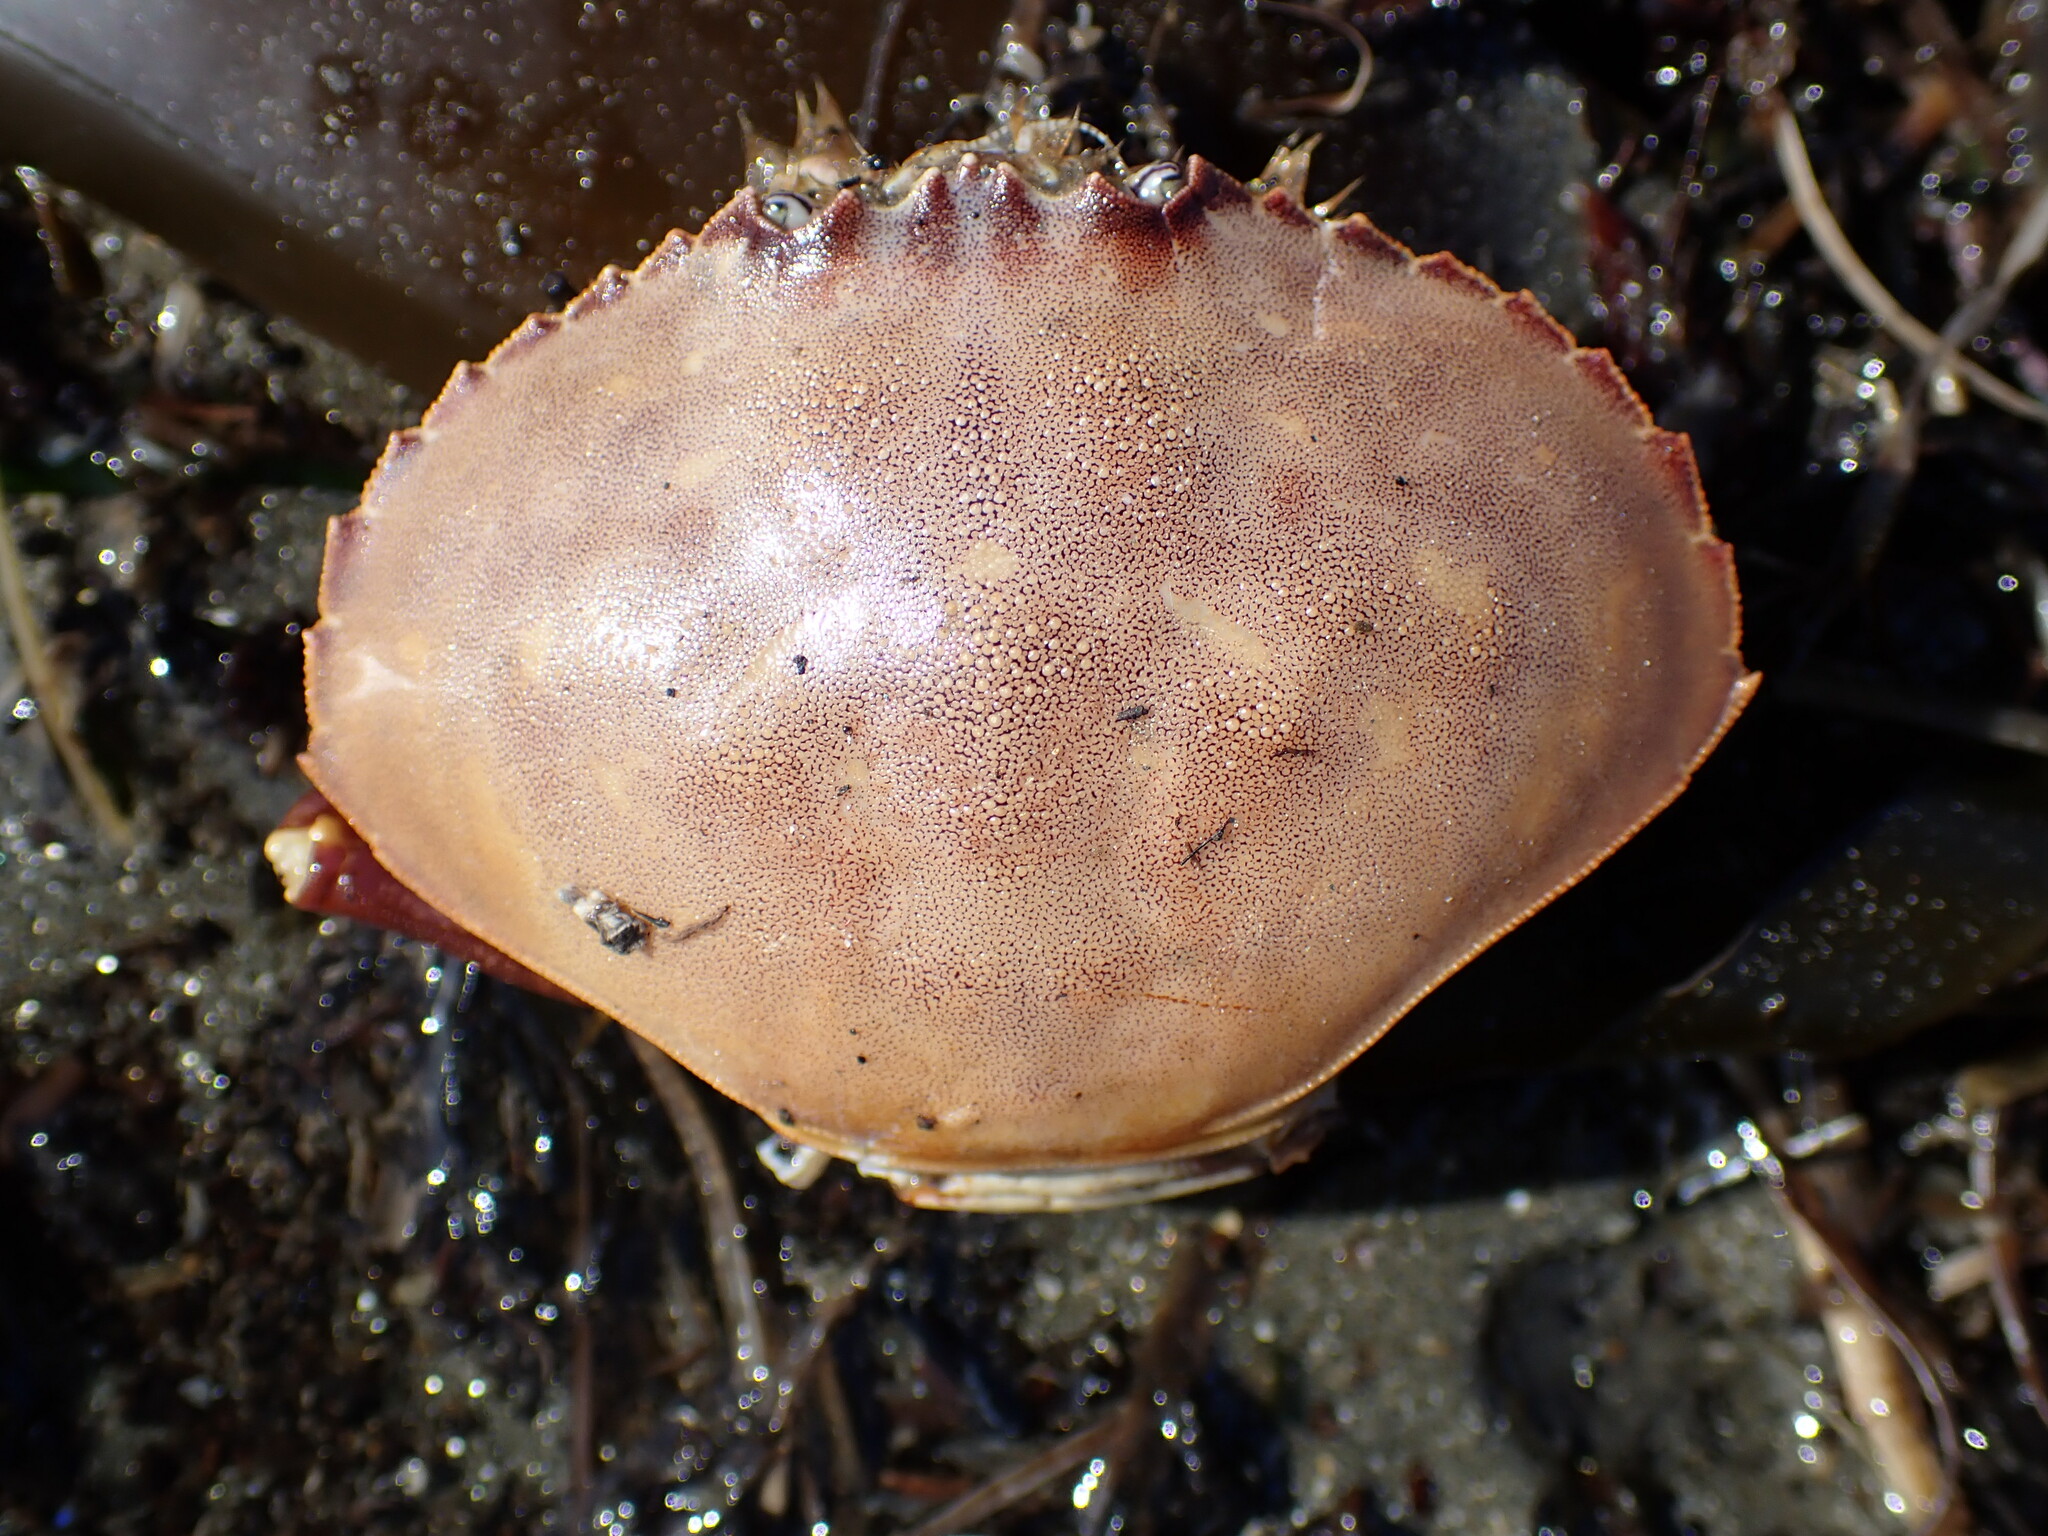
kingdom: Animalia
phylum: Arthropoda
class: Malacostraca
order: Decapoda
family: Cancridae
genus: Metacarcinus
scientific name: Metacarcinus gracilis
